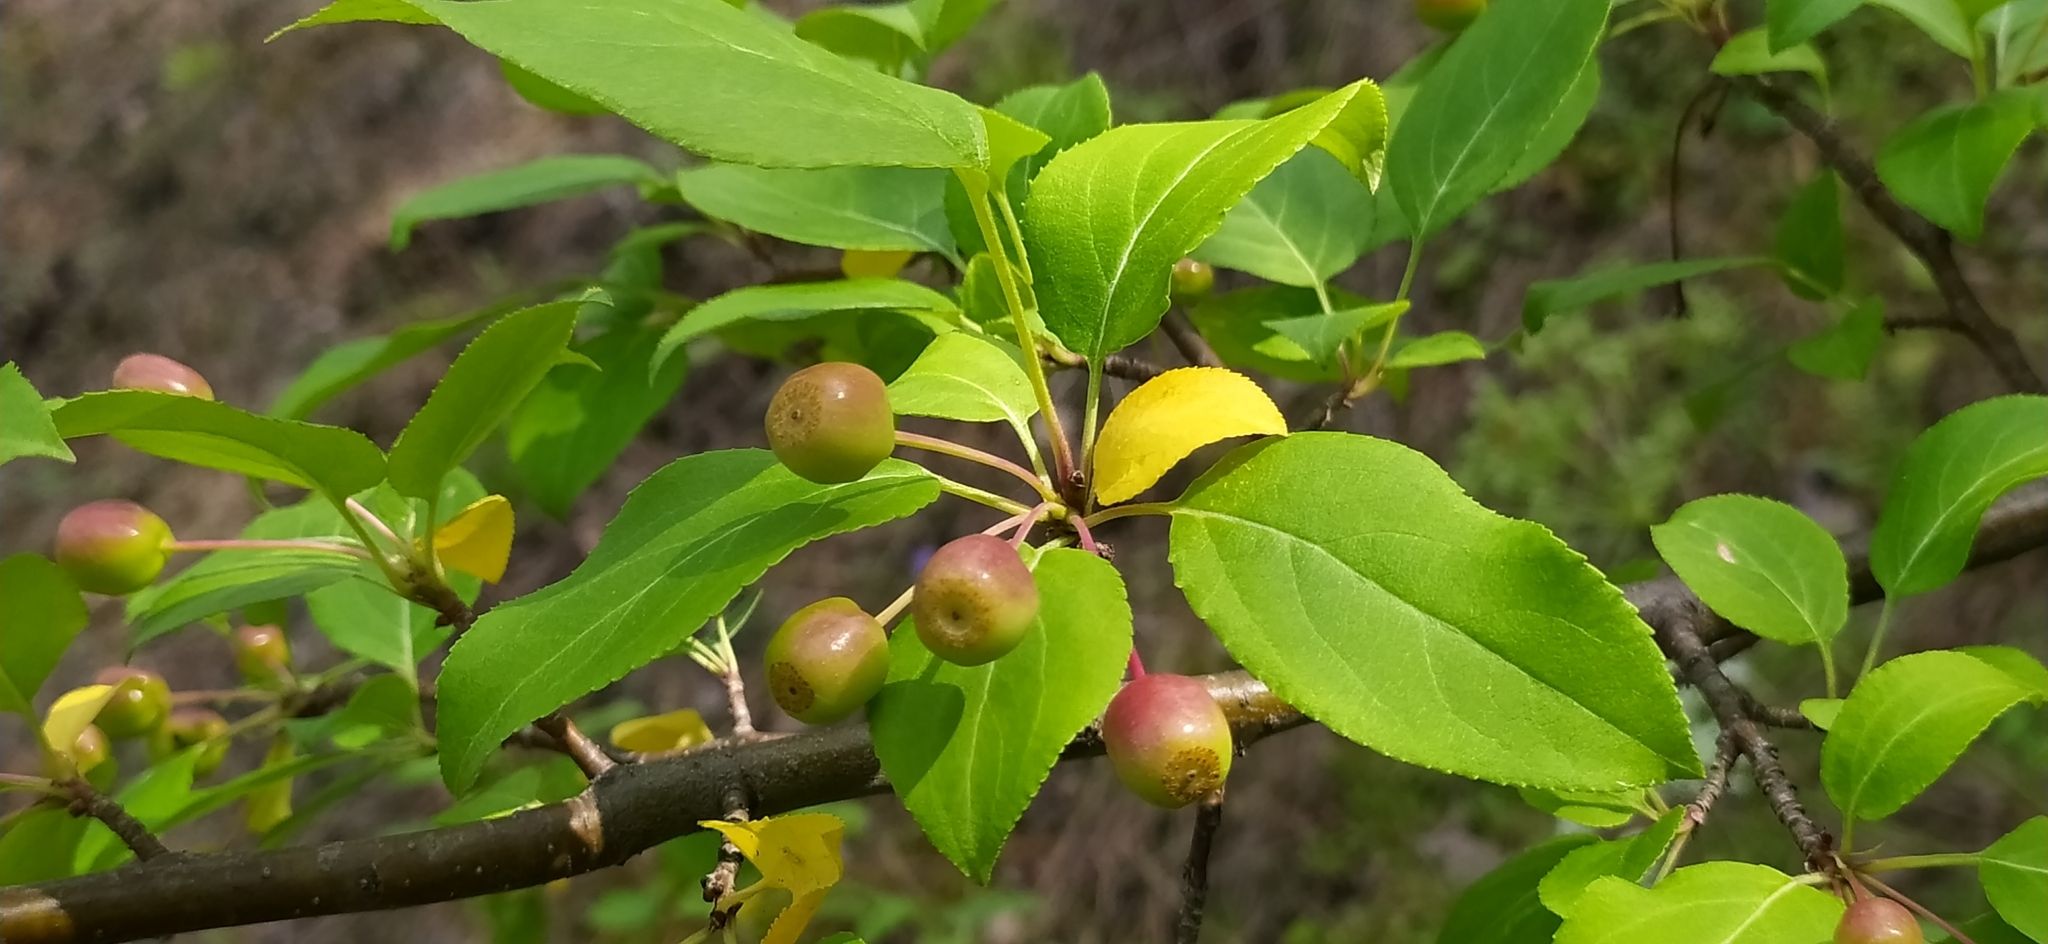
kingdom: Plantae
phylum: Tracheophyta
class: Magnoliopsida
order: Rosales
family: Rosaceae
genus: Malus
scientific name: Malus baccata
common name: Siberian crab
